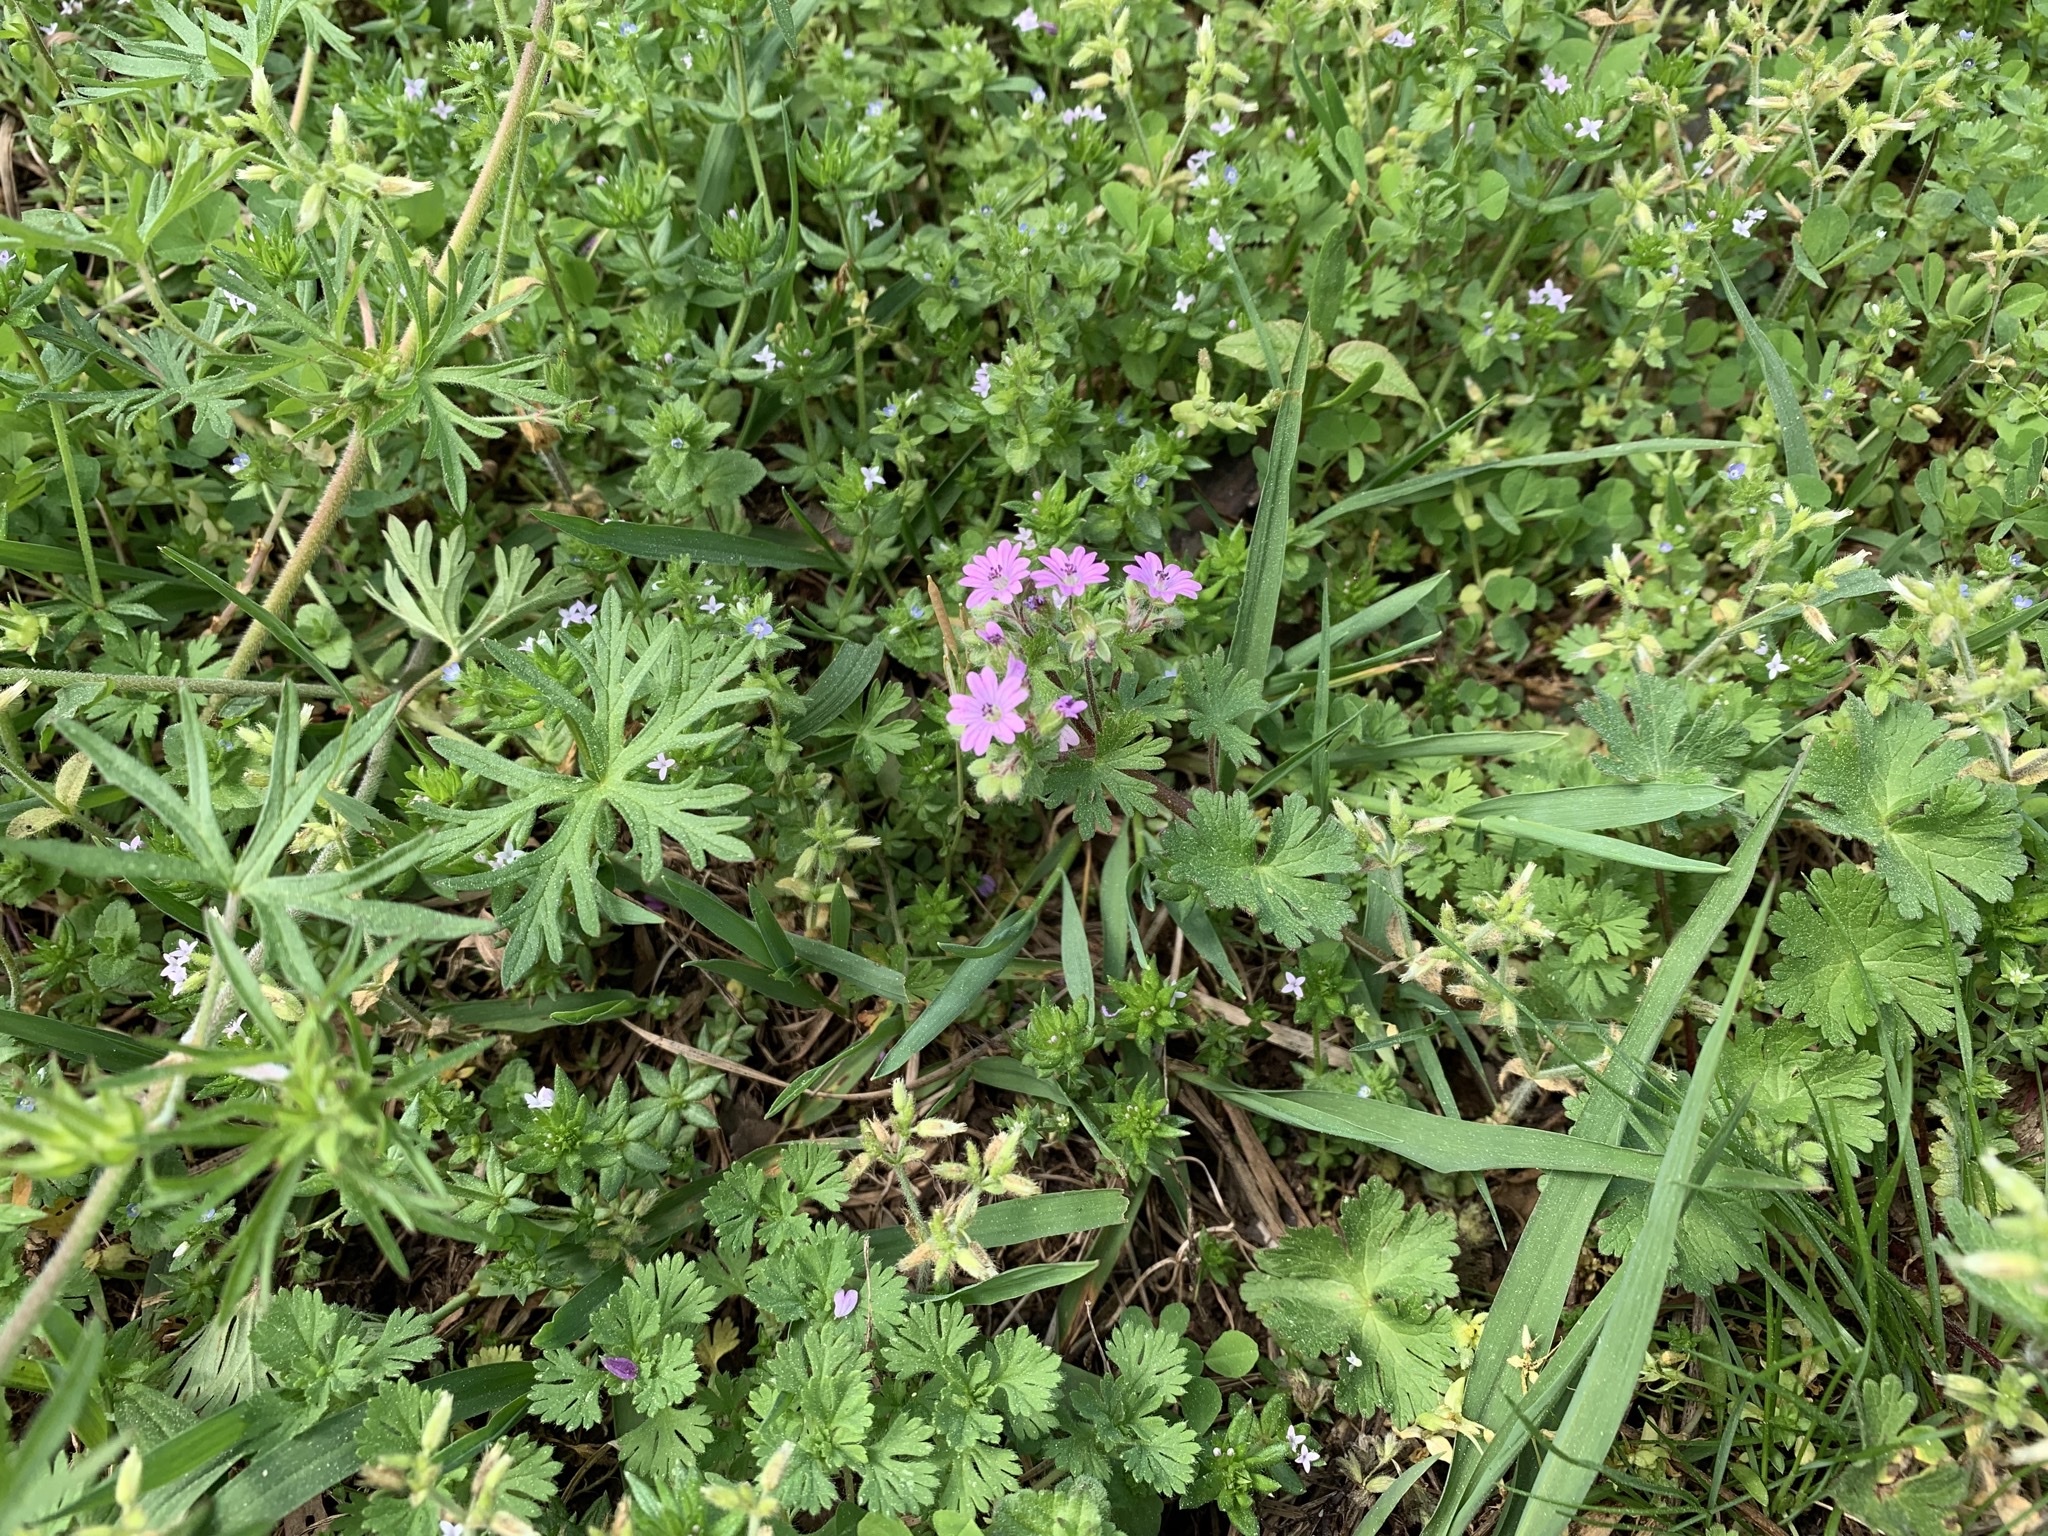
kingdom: Plantae
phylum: Tracheophyta
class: Magnoliopsida
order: Geraniales
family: Geraniaceae
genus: Geranium
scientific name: Geranium molle
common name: Dove's-foot crane's-bill
